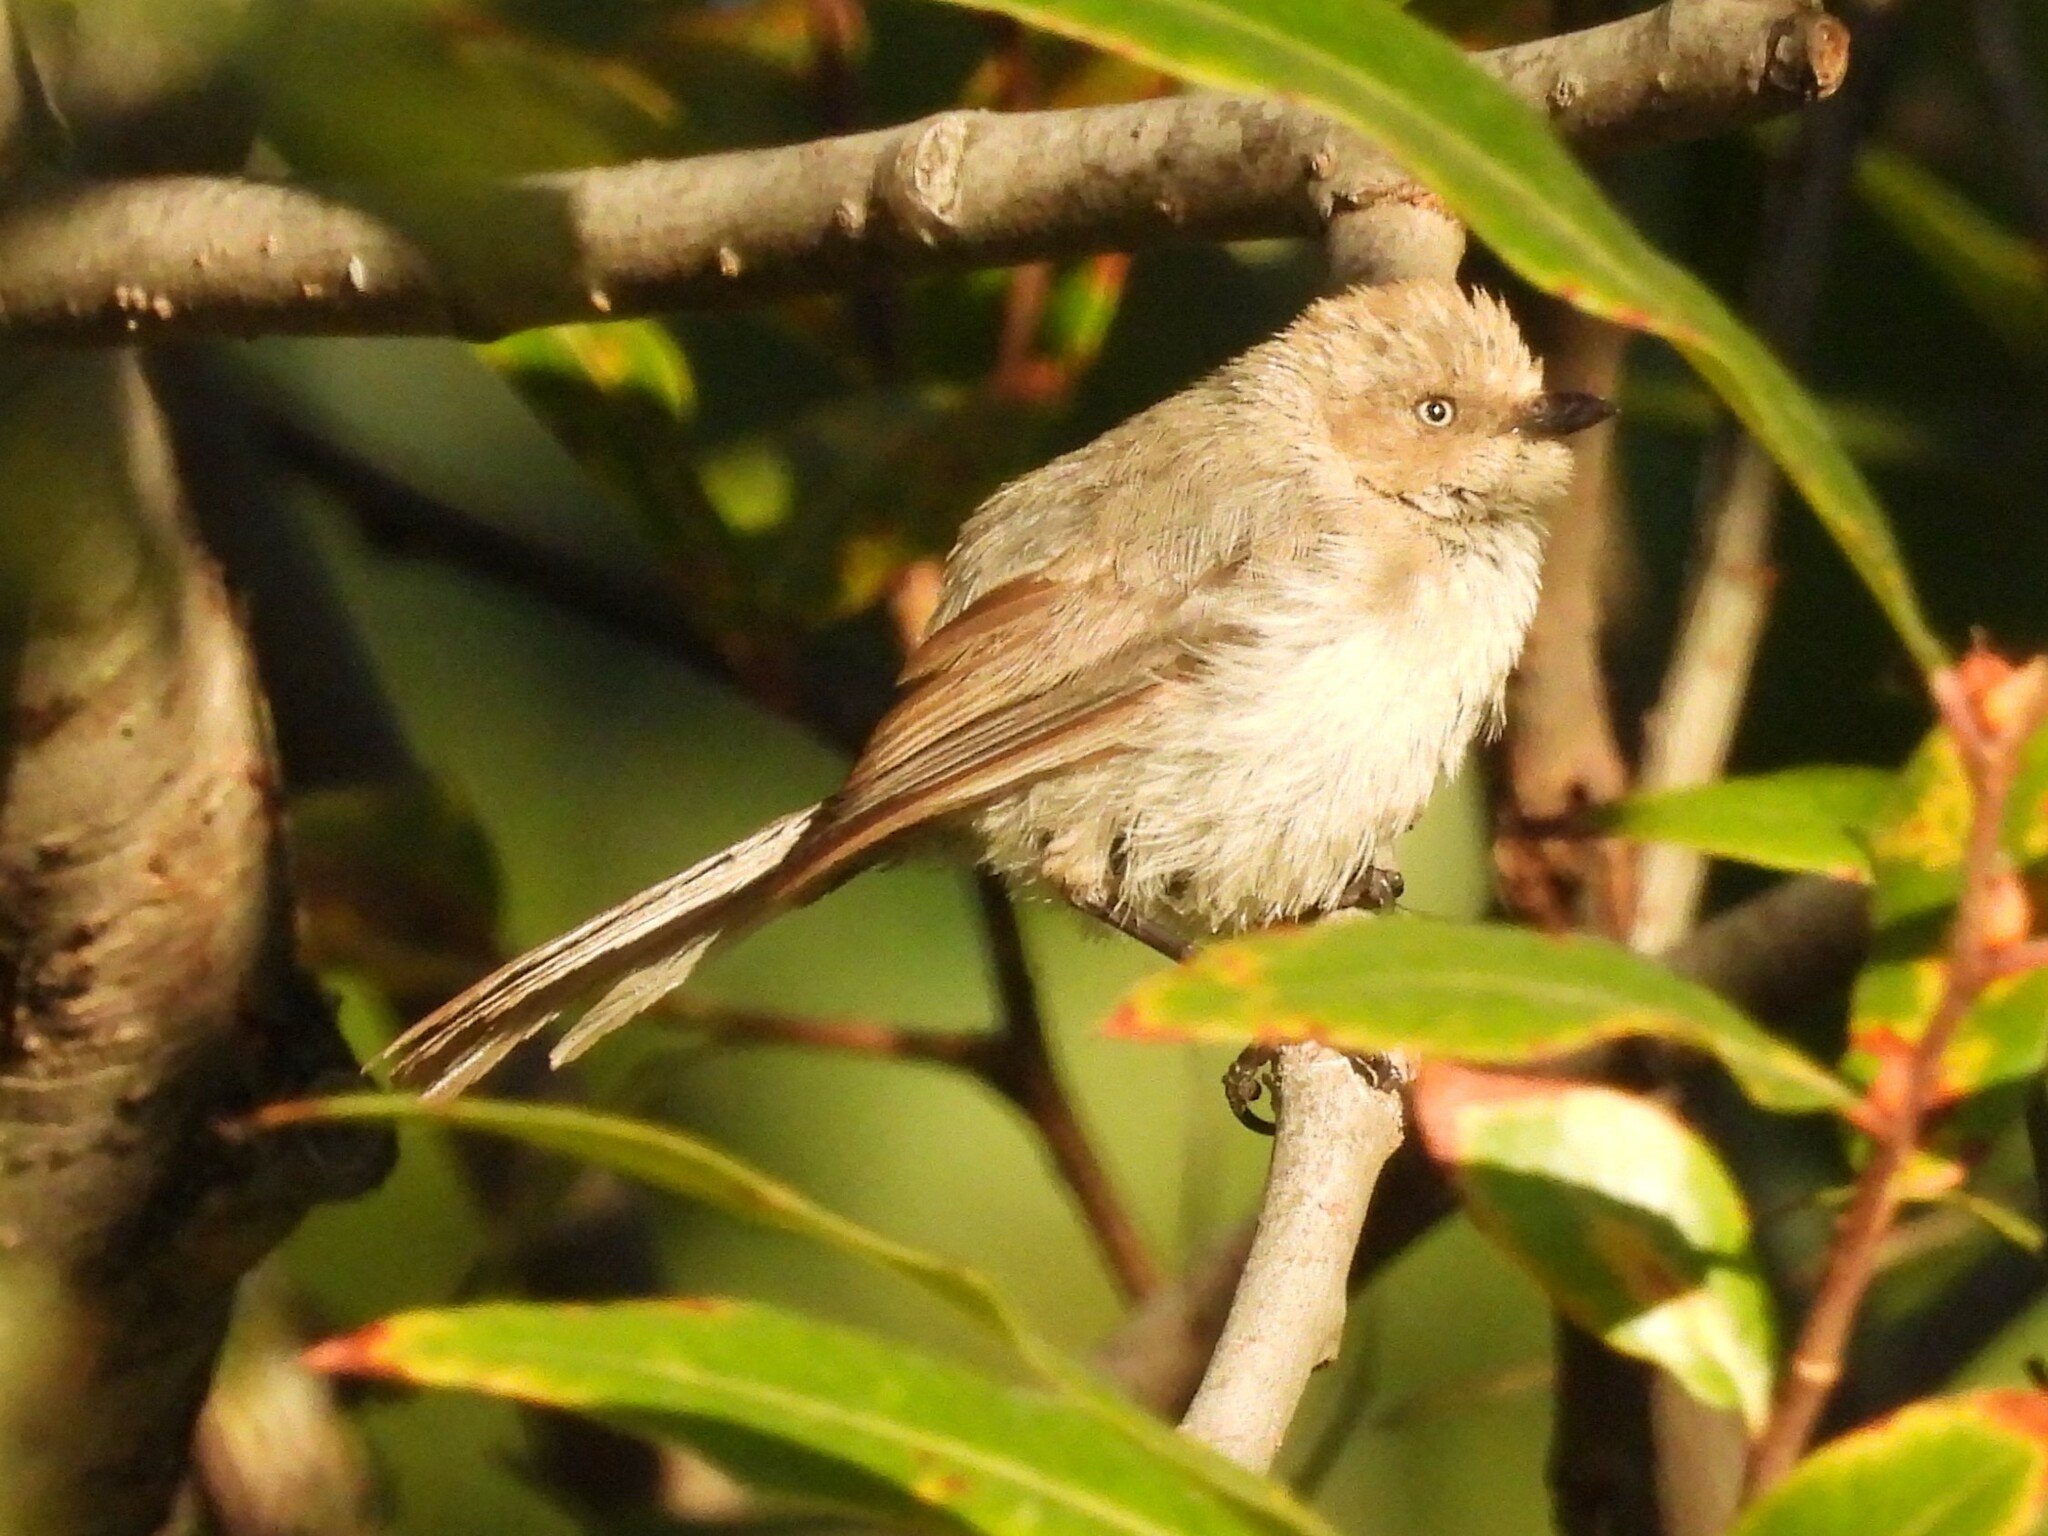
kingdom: Animalia
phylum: Chordata
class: Aves
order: Passeriformes
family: Aegithalidae
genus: Psaltriparus
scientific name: Psaltriparus minimus
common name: American bushtit
